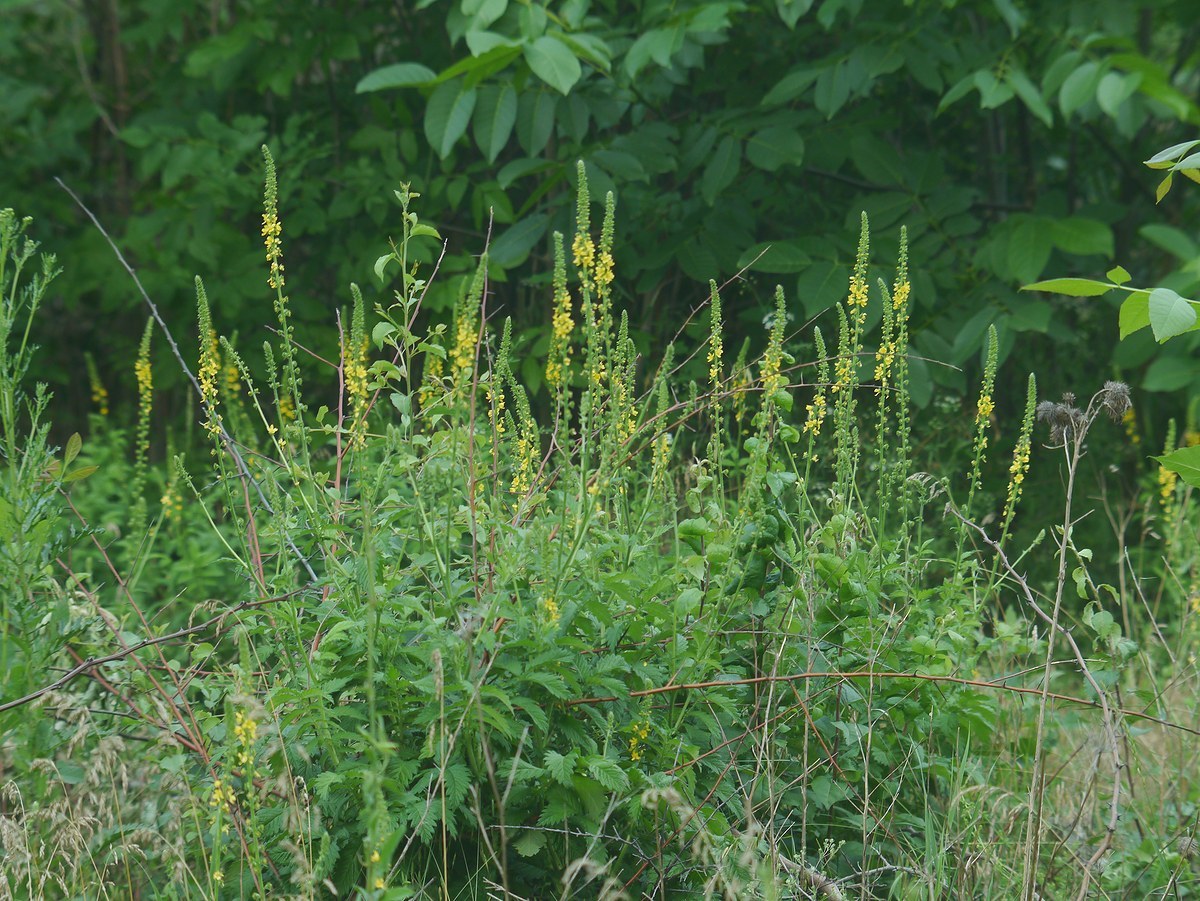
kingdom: Plantae
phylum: Tracheophyta
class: Magnoliopsida
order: Rosales
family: Rosaceae
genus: Agrimonia
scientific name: Agrimonia eupatoria
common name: Agrimony
